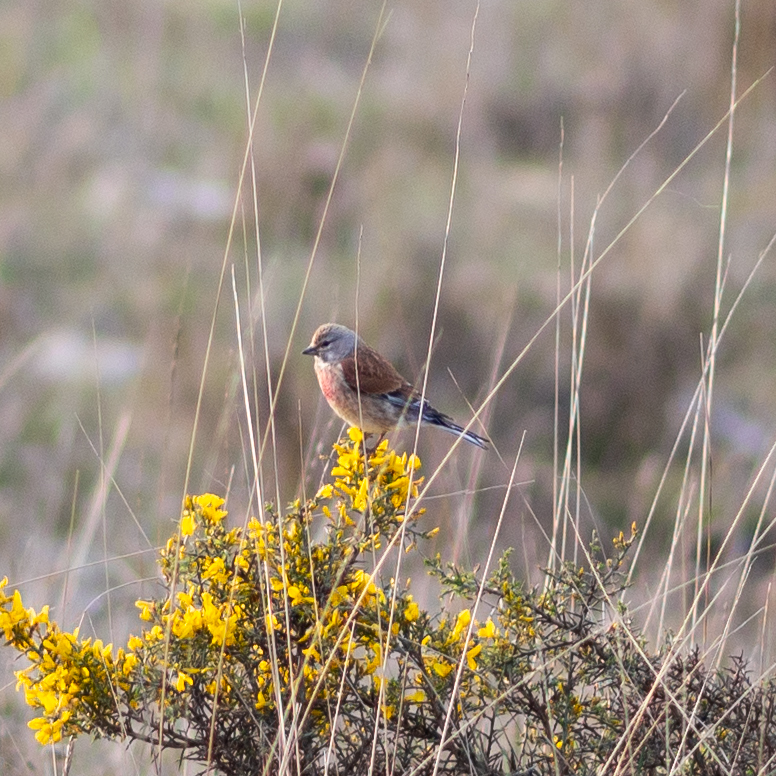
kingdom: Animalia
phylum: Chordata
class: Aves
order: Passeriformes
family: Fringillidae
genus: Linaria
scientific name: Linaria cannabina
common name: Common linnet
